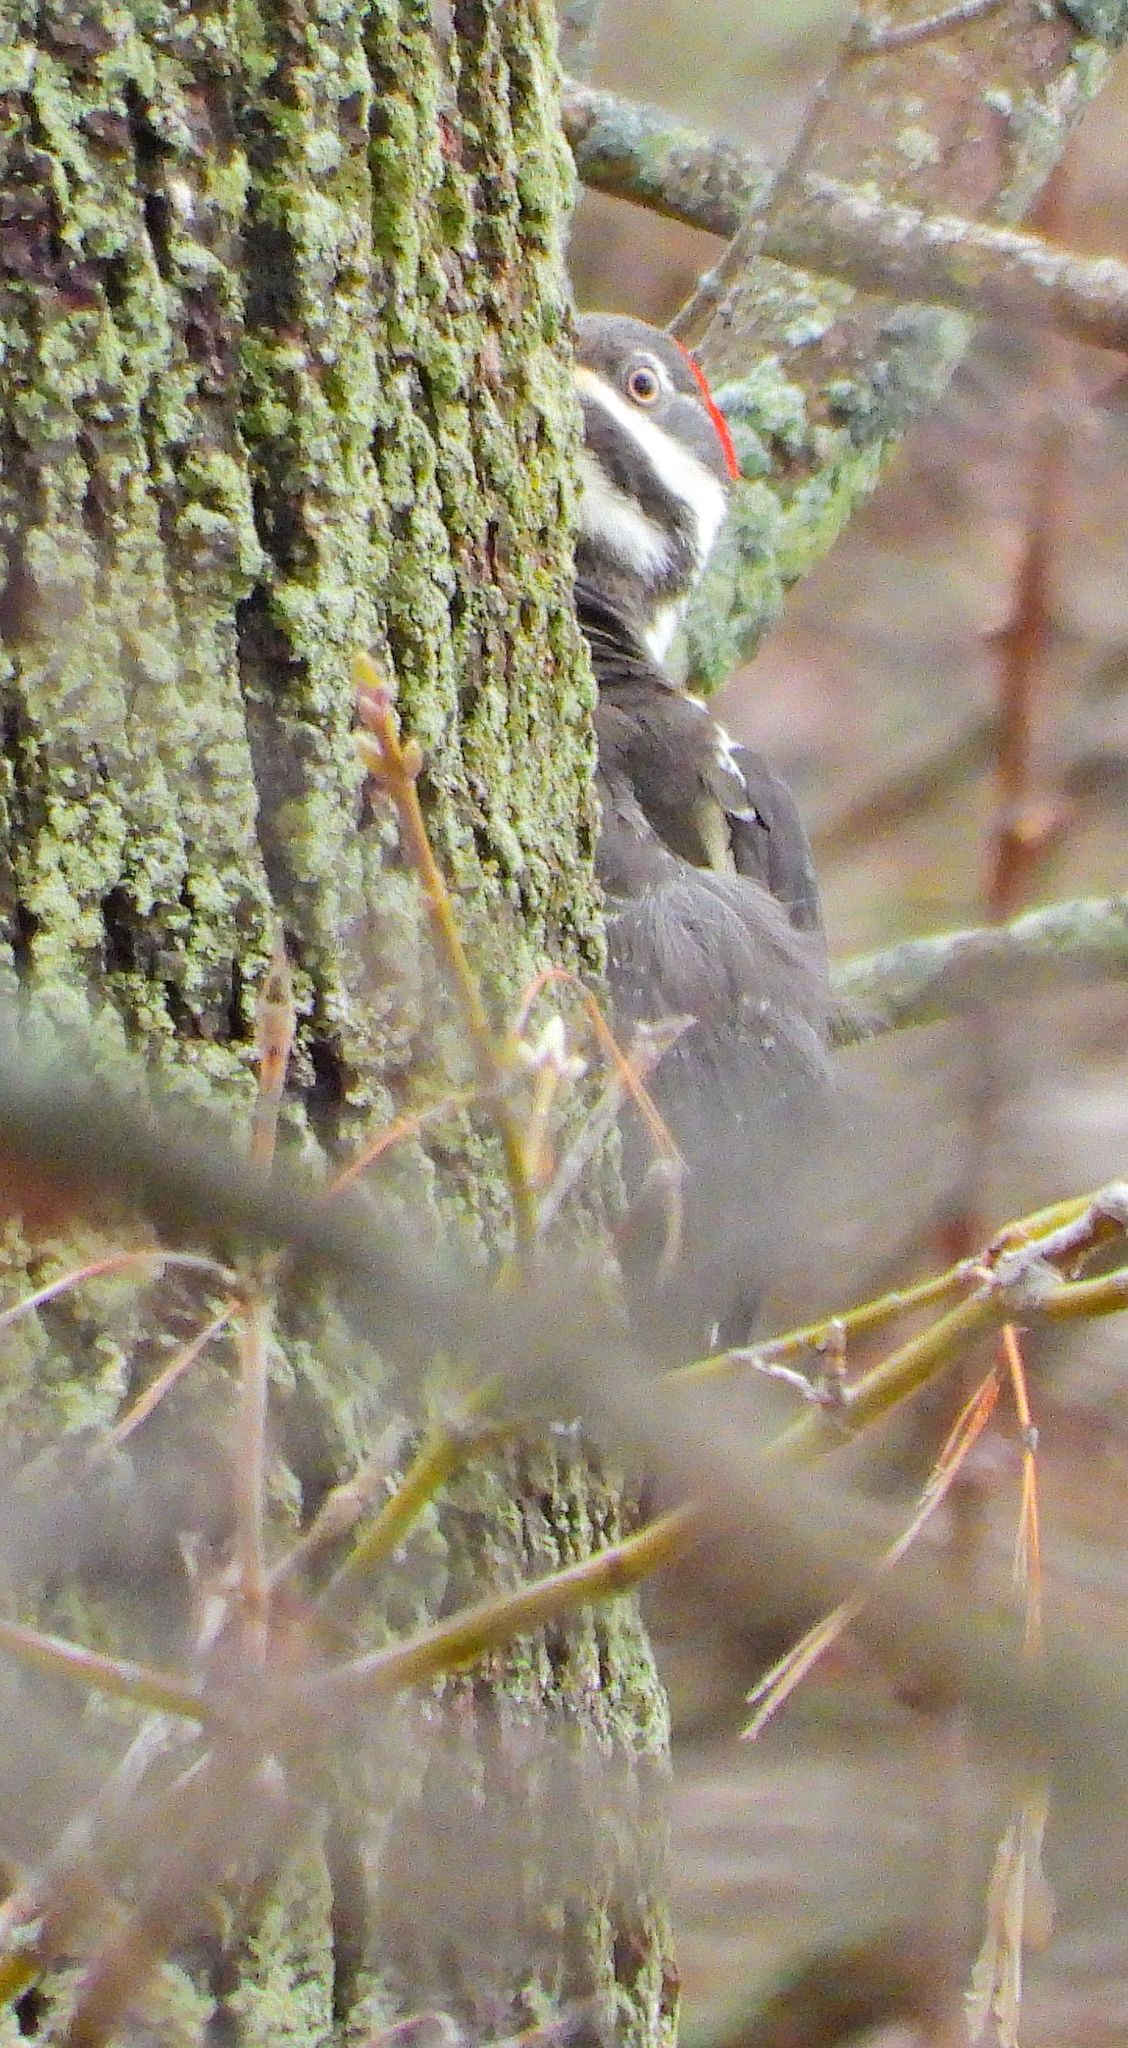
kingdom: Animalia
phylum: Chordata
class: Aves
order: Piciformes
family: Picidae
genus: Dryocopus
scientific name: Dryocopus pileatus
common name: Pileated woodpecker
